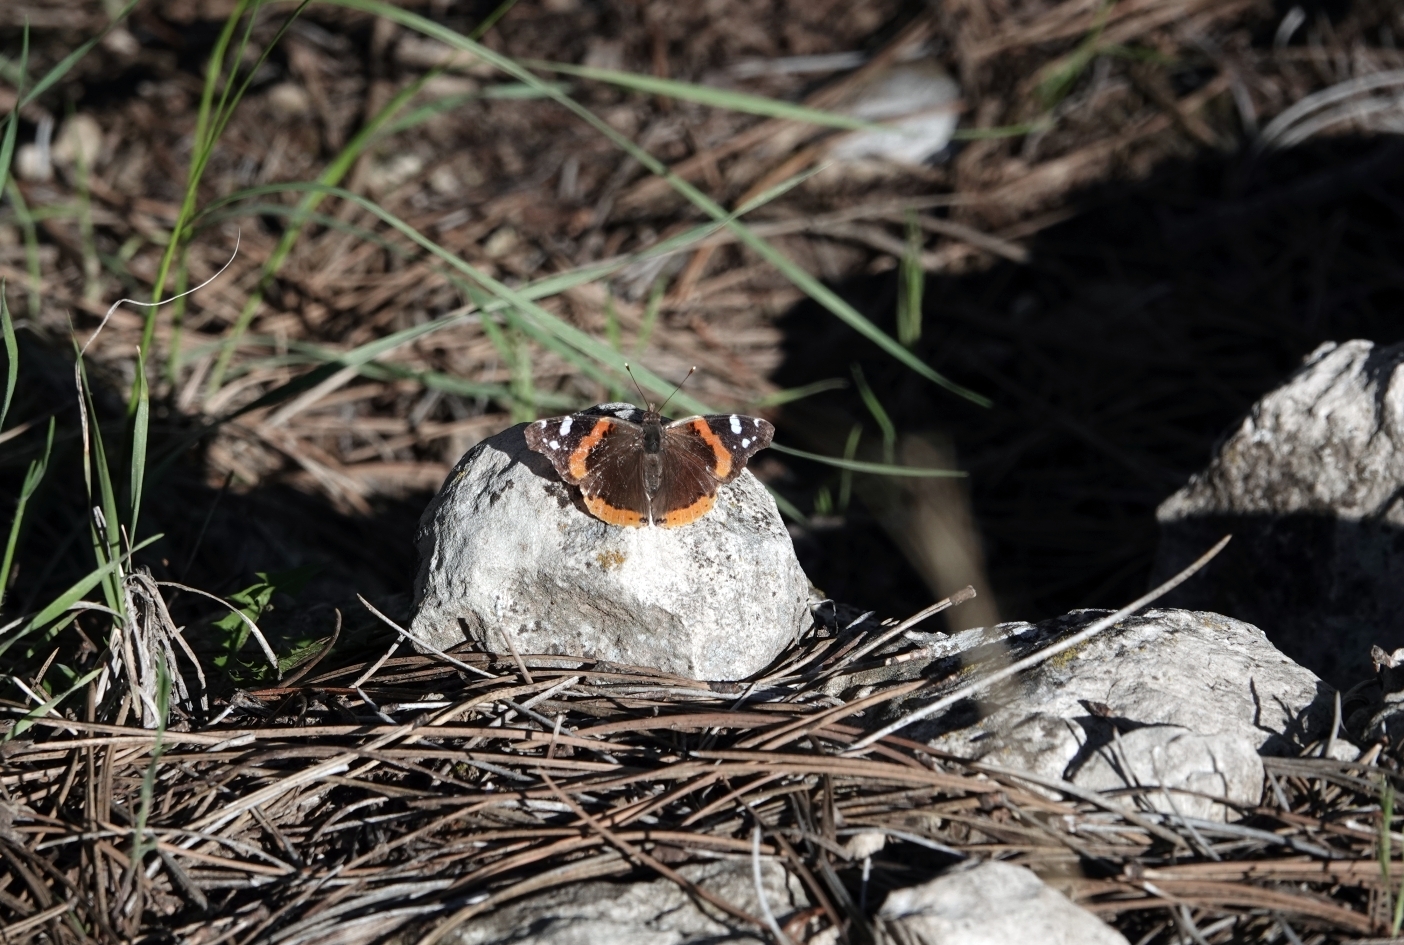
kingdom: Animalia
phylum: Arthropoda
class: Insecta
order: Lepidoptera
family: Nymphalidae
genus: Vanessa
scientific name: Vanessa atalanta
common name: Red admiral
